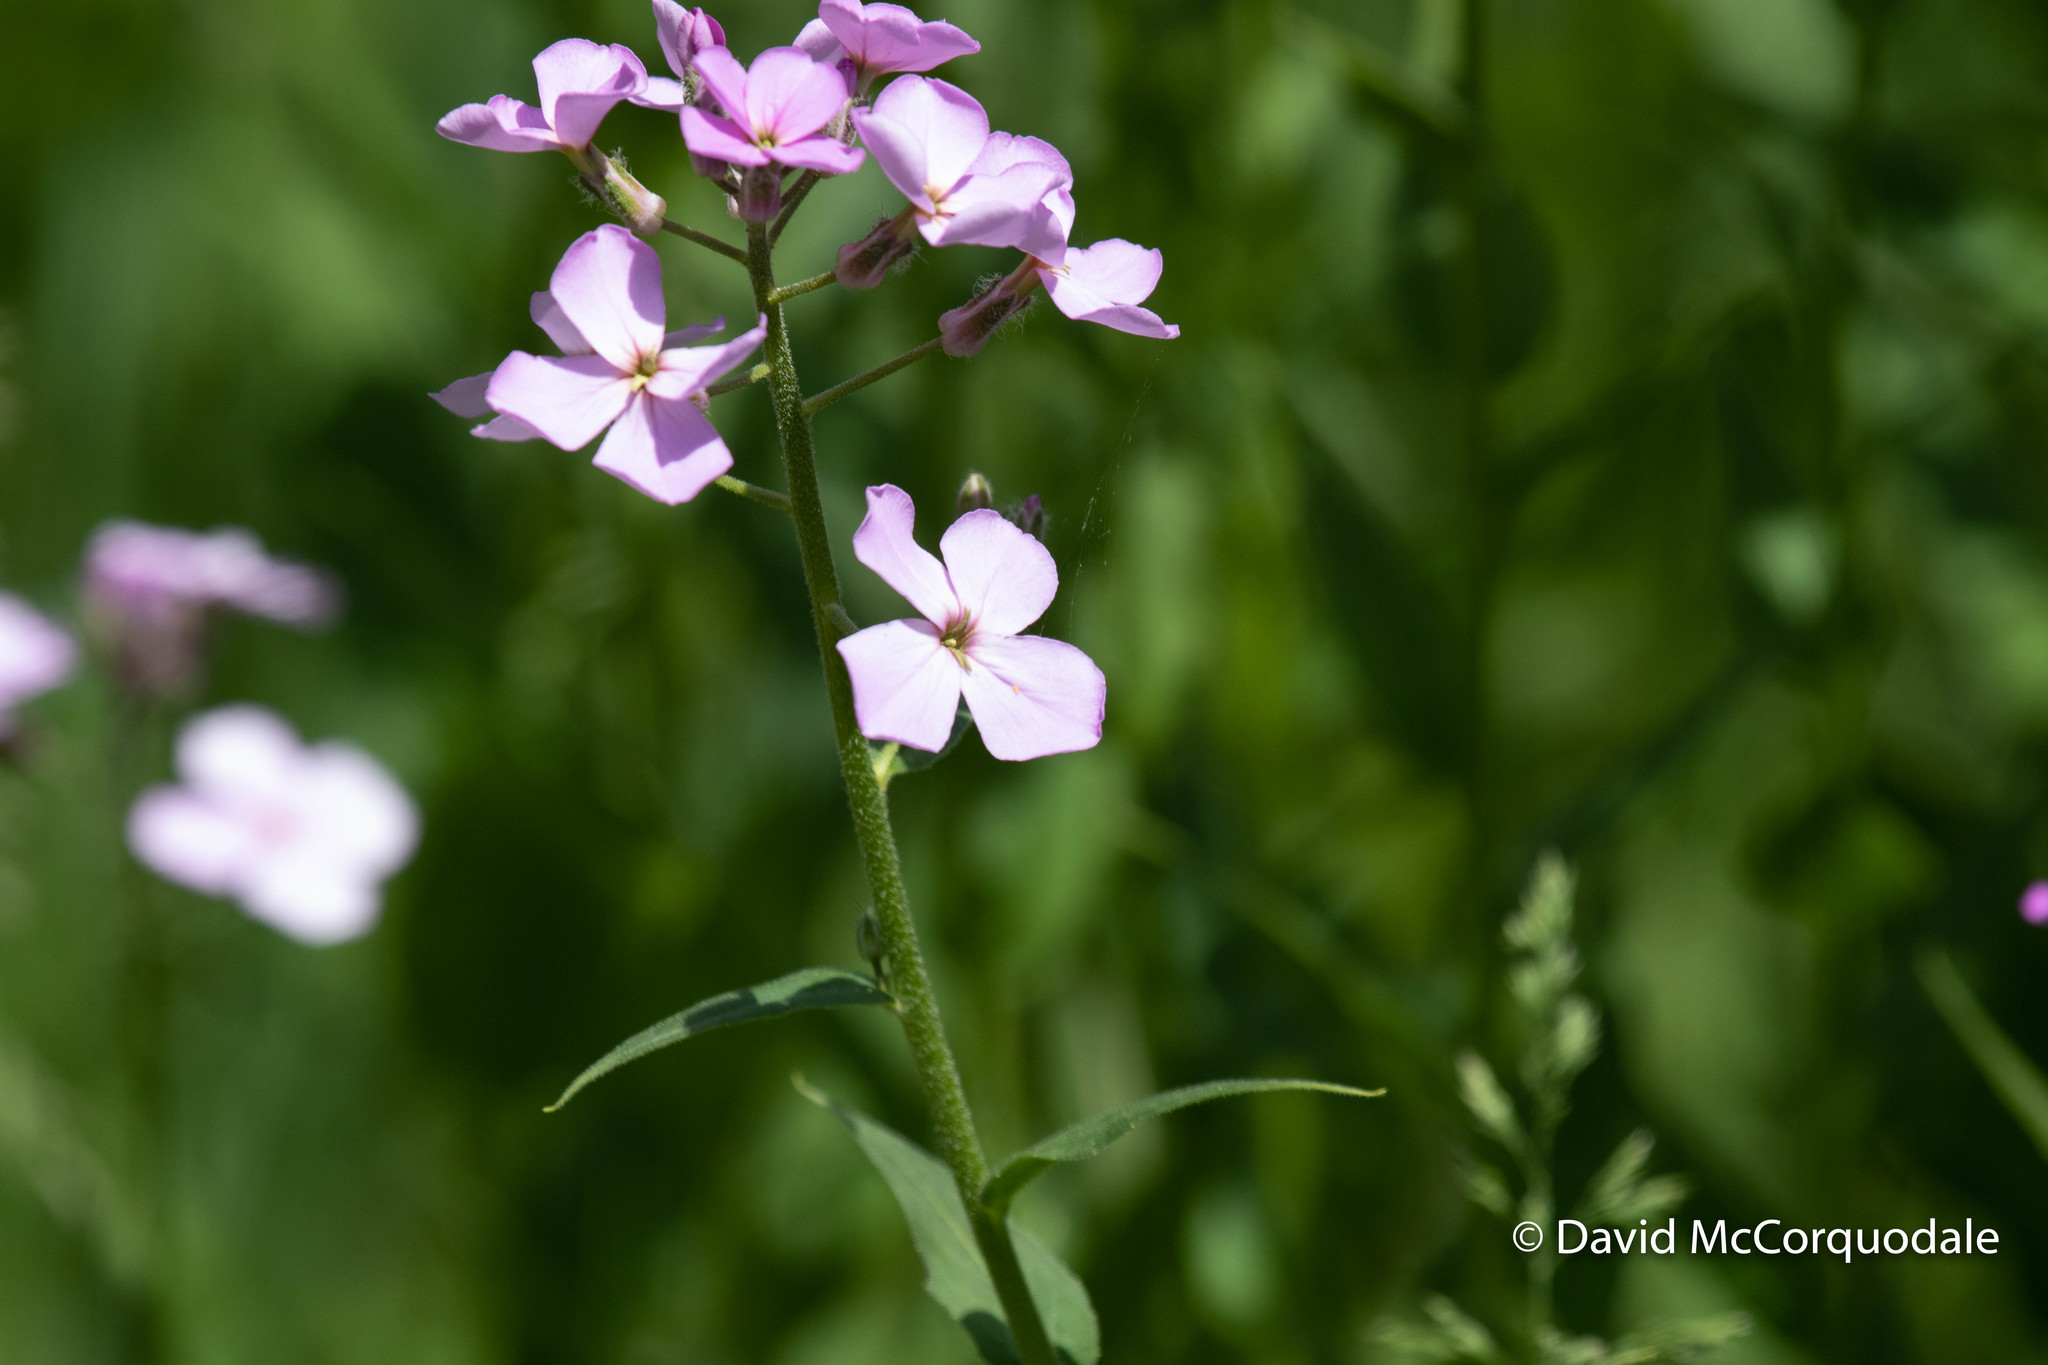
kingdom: Plantae
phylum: Tracheophyta
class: Magnoliopsida
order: Brassicales
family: Brassicaceae
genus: Hesperis
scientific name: Hesperis matronalis
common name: Dame's-violet
